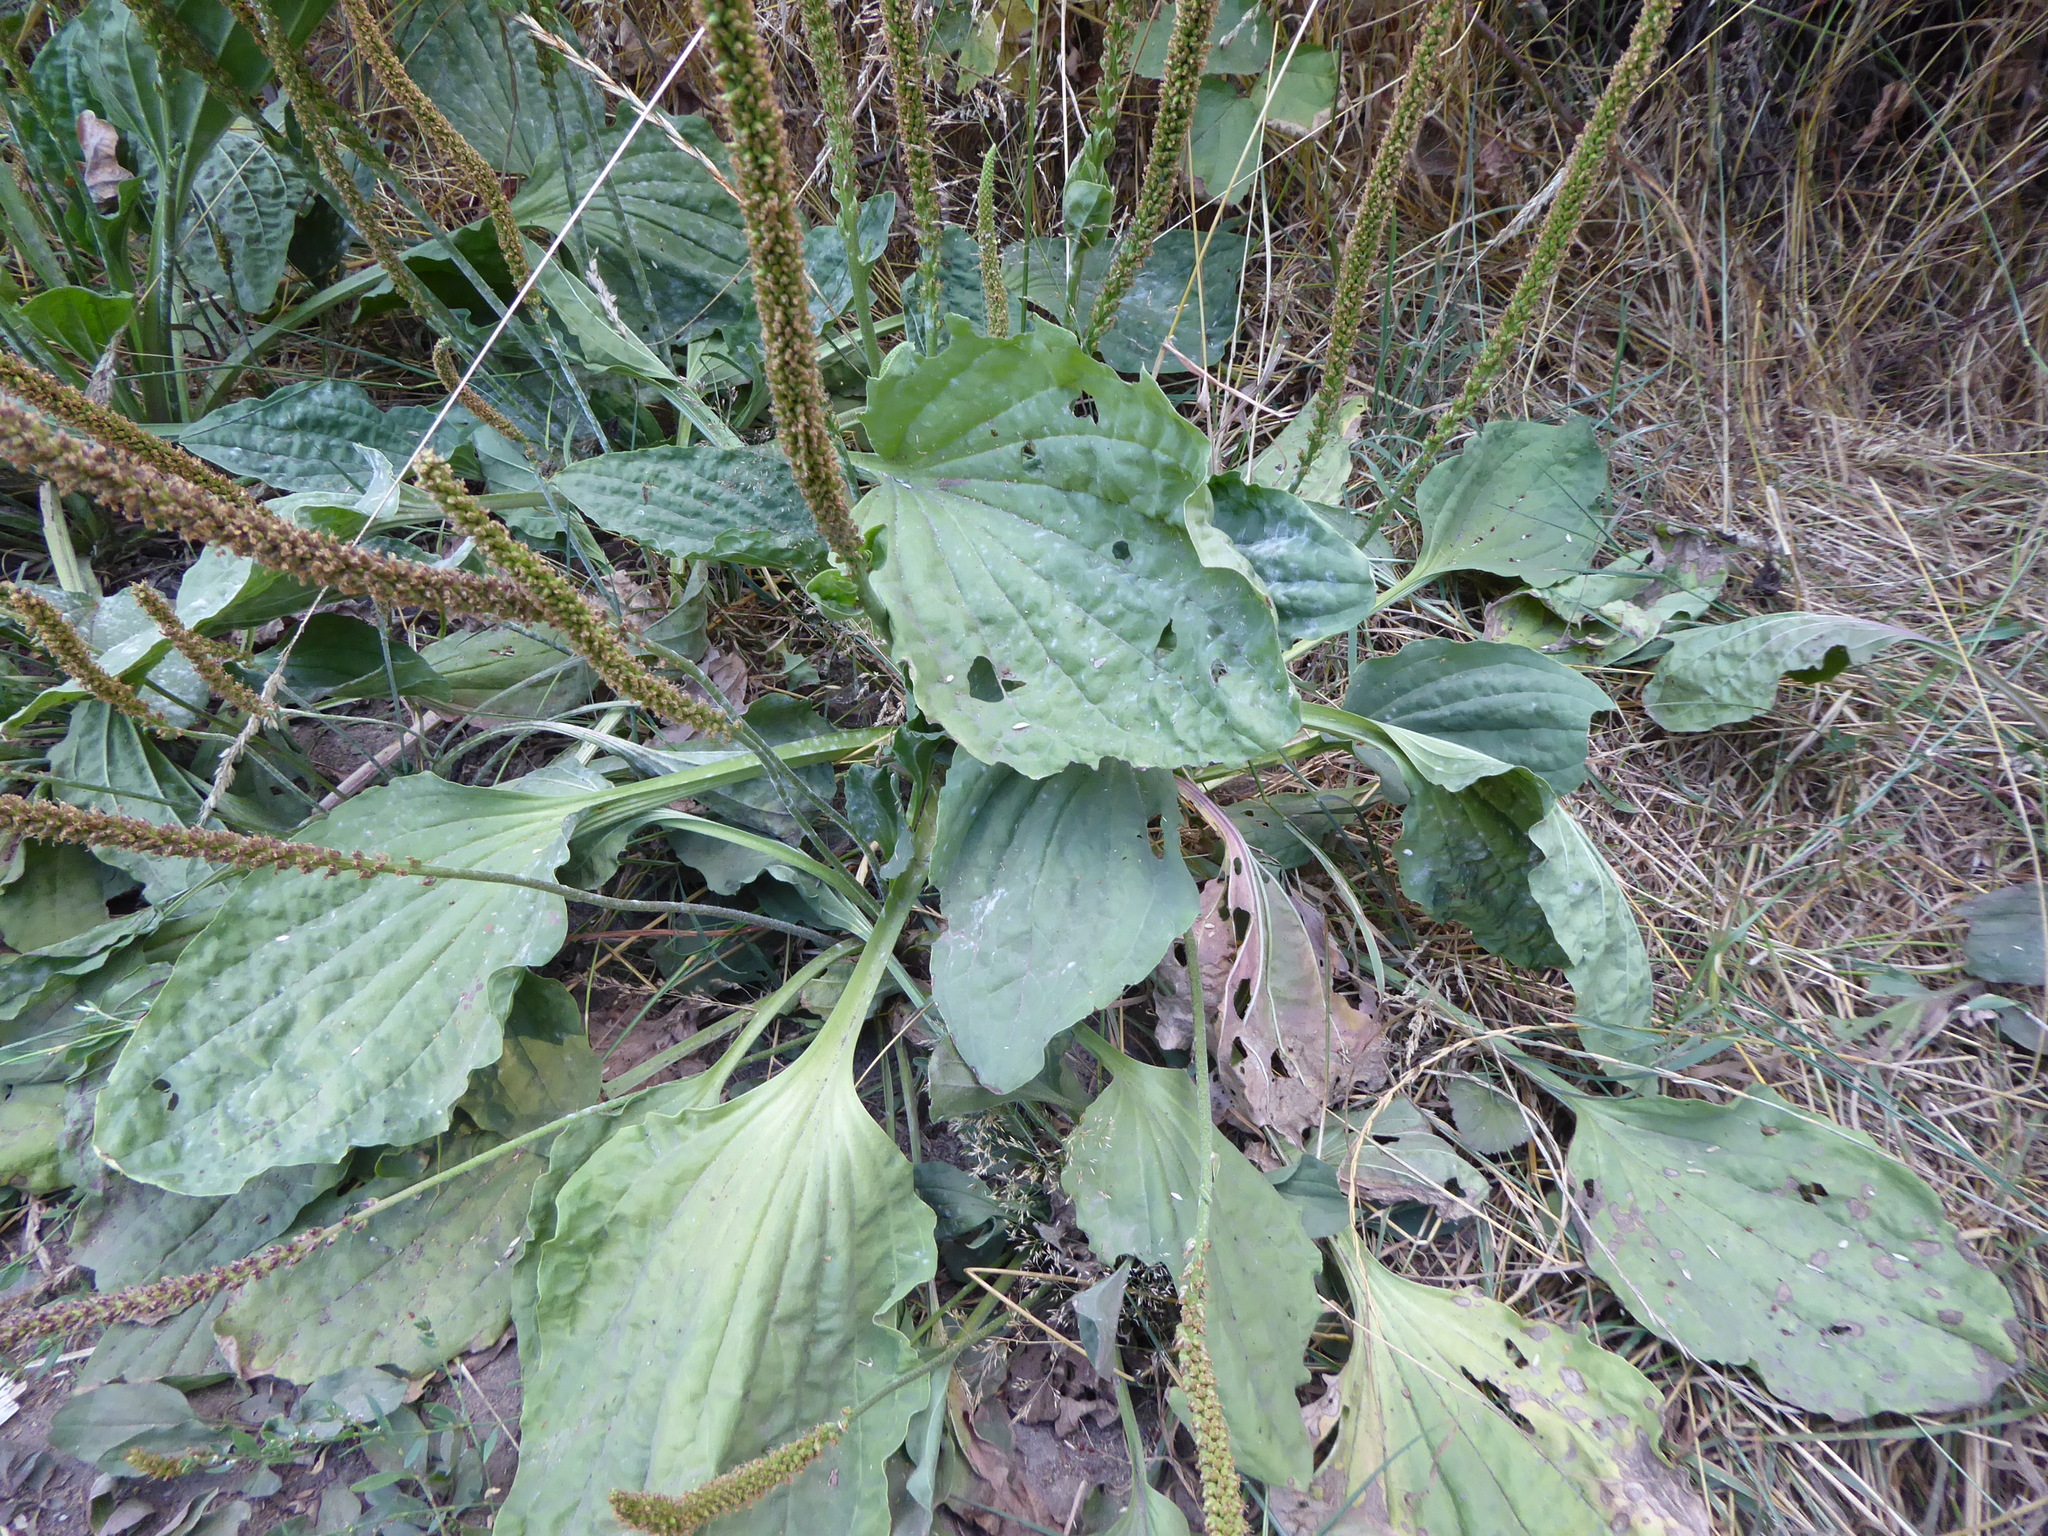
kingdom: Plantae
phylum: Tracheophyta
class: Magnoliopsida
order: Lamiales
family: Plantaginaceae
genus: Plantago
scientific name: Plantago major
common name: Common plantain
